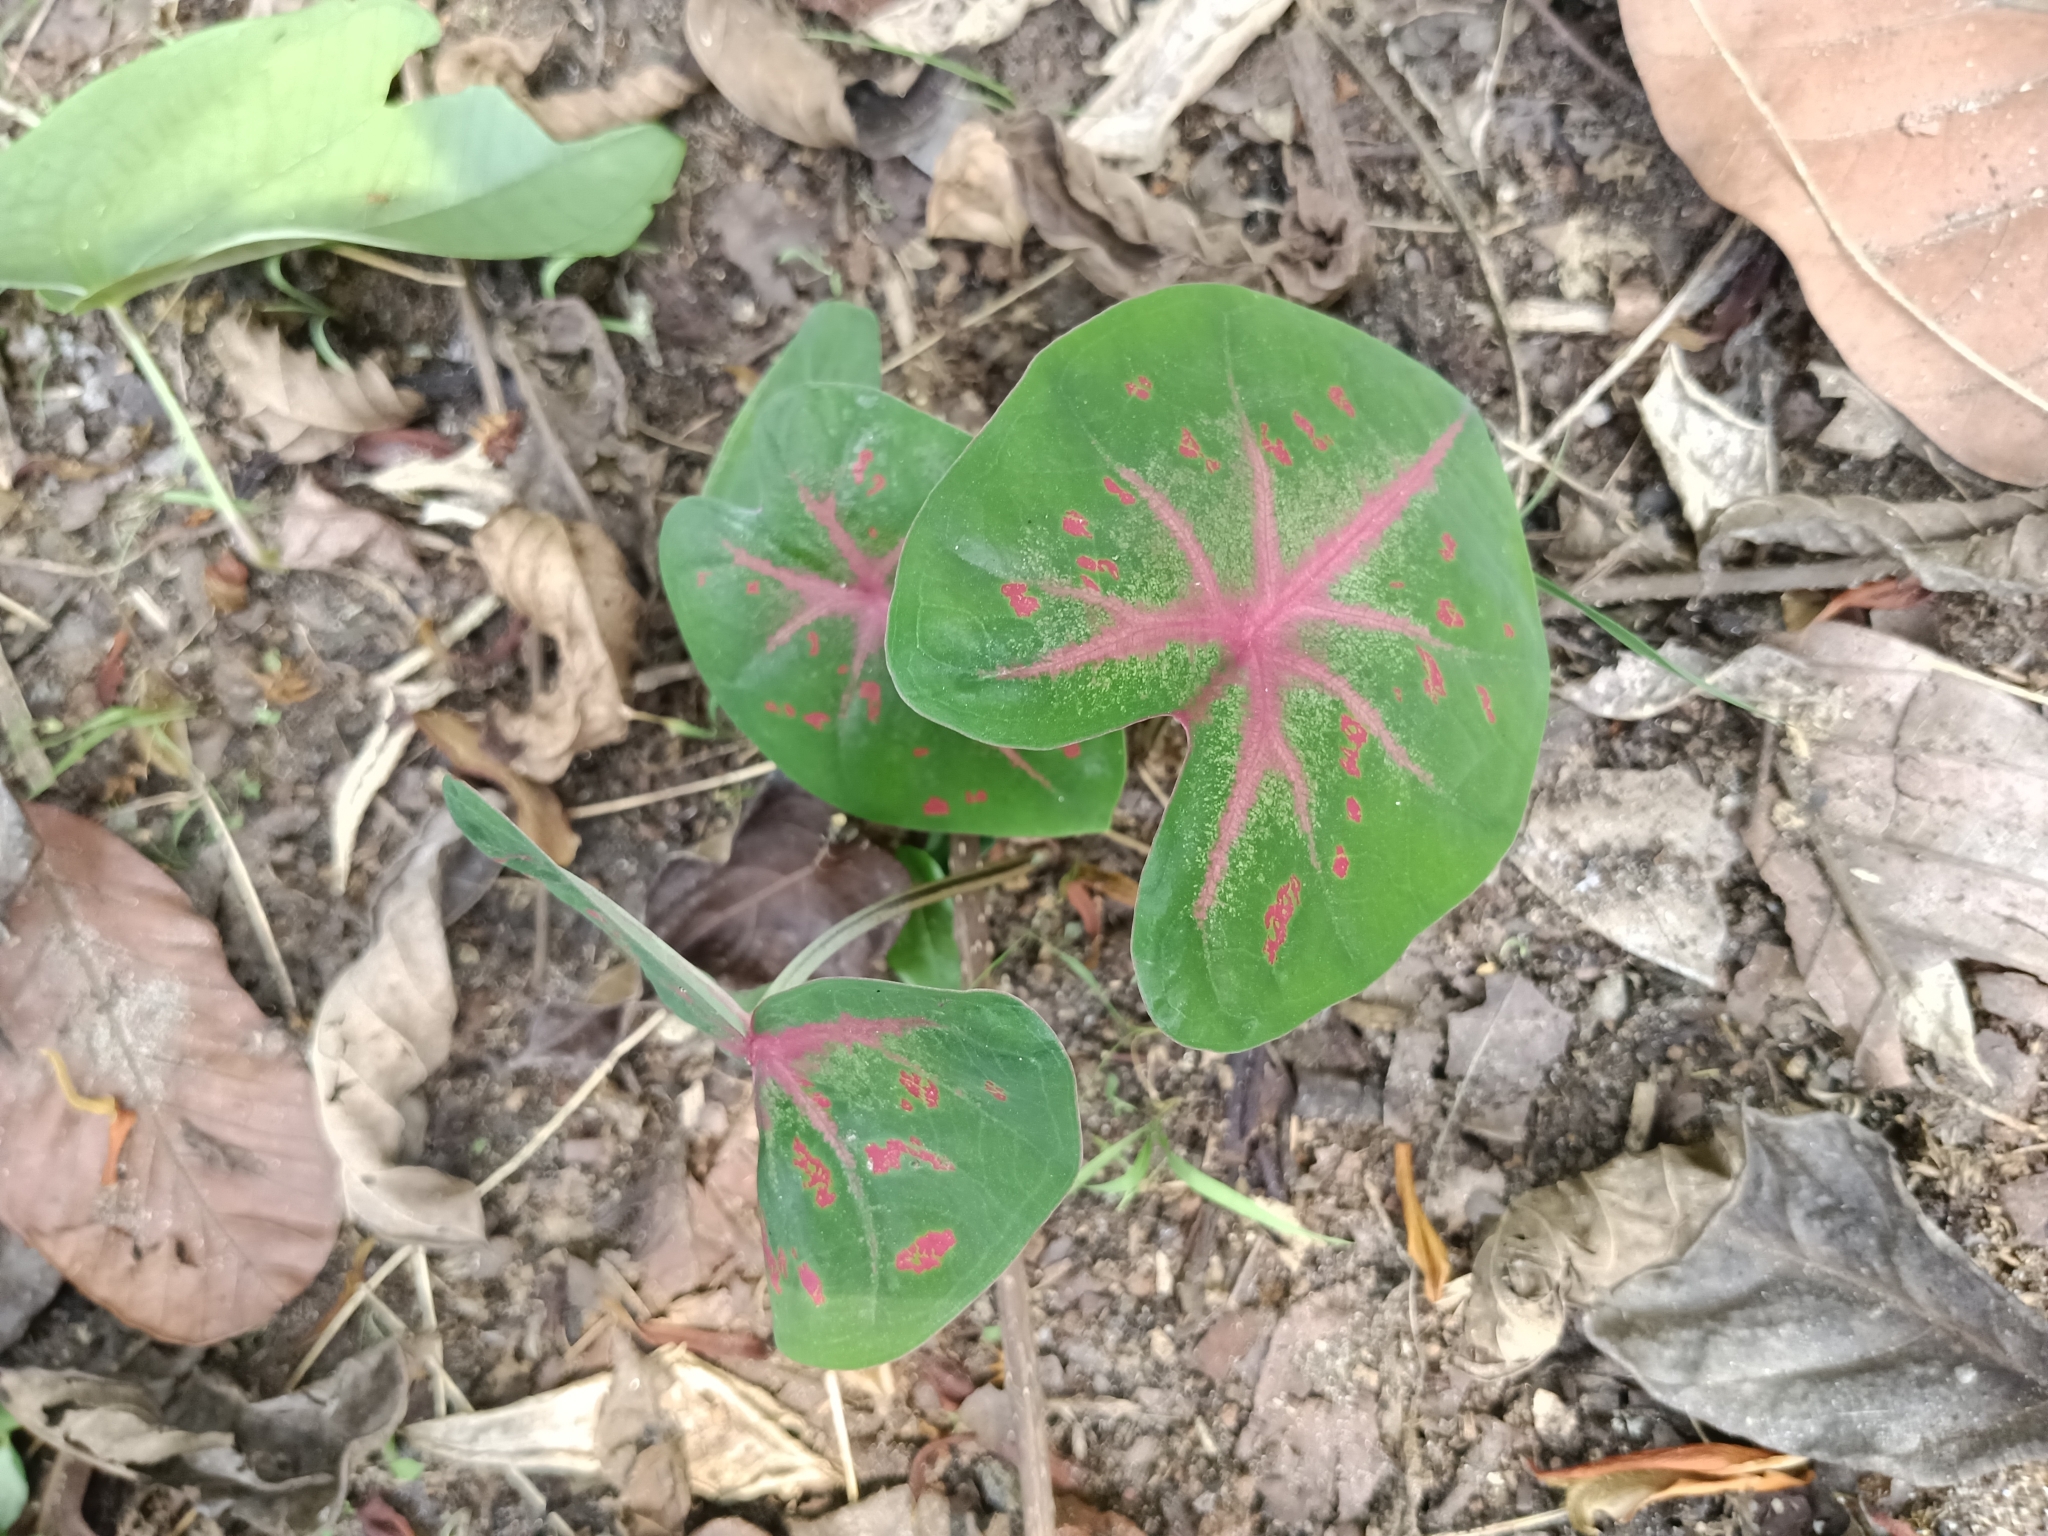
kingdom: Plantae
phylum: Tracheophyta
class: Liliopsida
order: Alismatales
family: Araceae
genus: Caladium
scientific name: Caladium bicolor
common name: Artist's pallet
